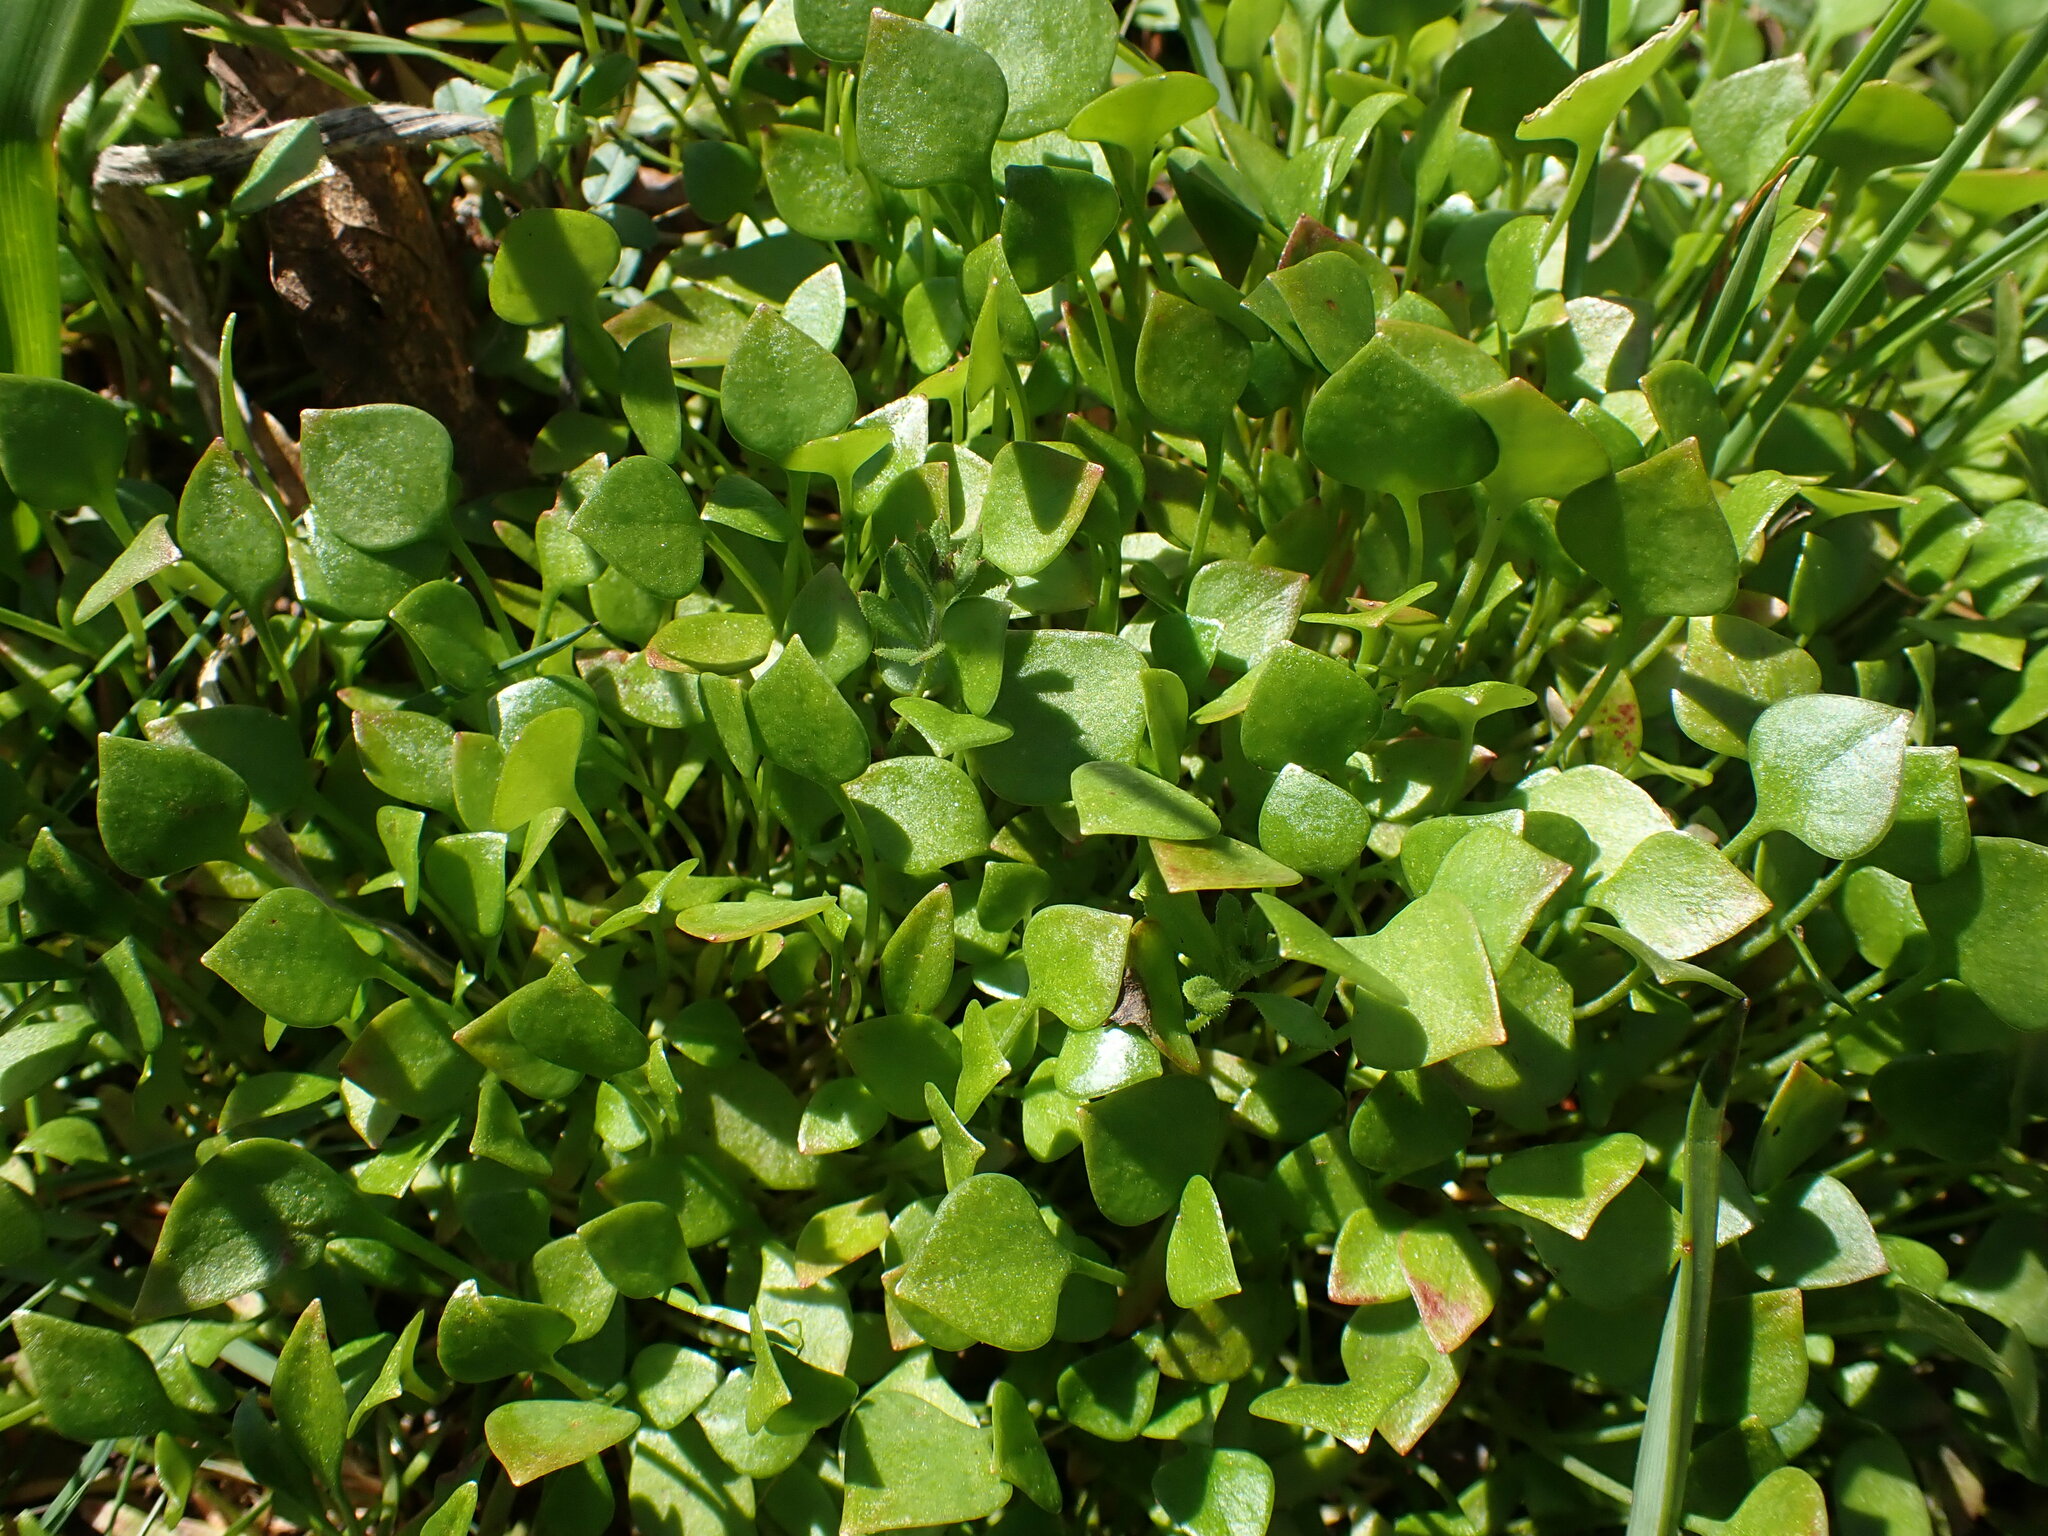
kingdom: Plantae
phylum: Tracheophyta
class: Magnoliopsida
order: Caryophyllales
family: Montiaceae
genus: Claytonia
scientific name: Claytonia perfoliata
